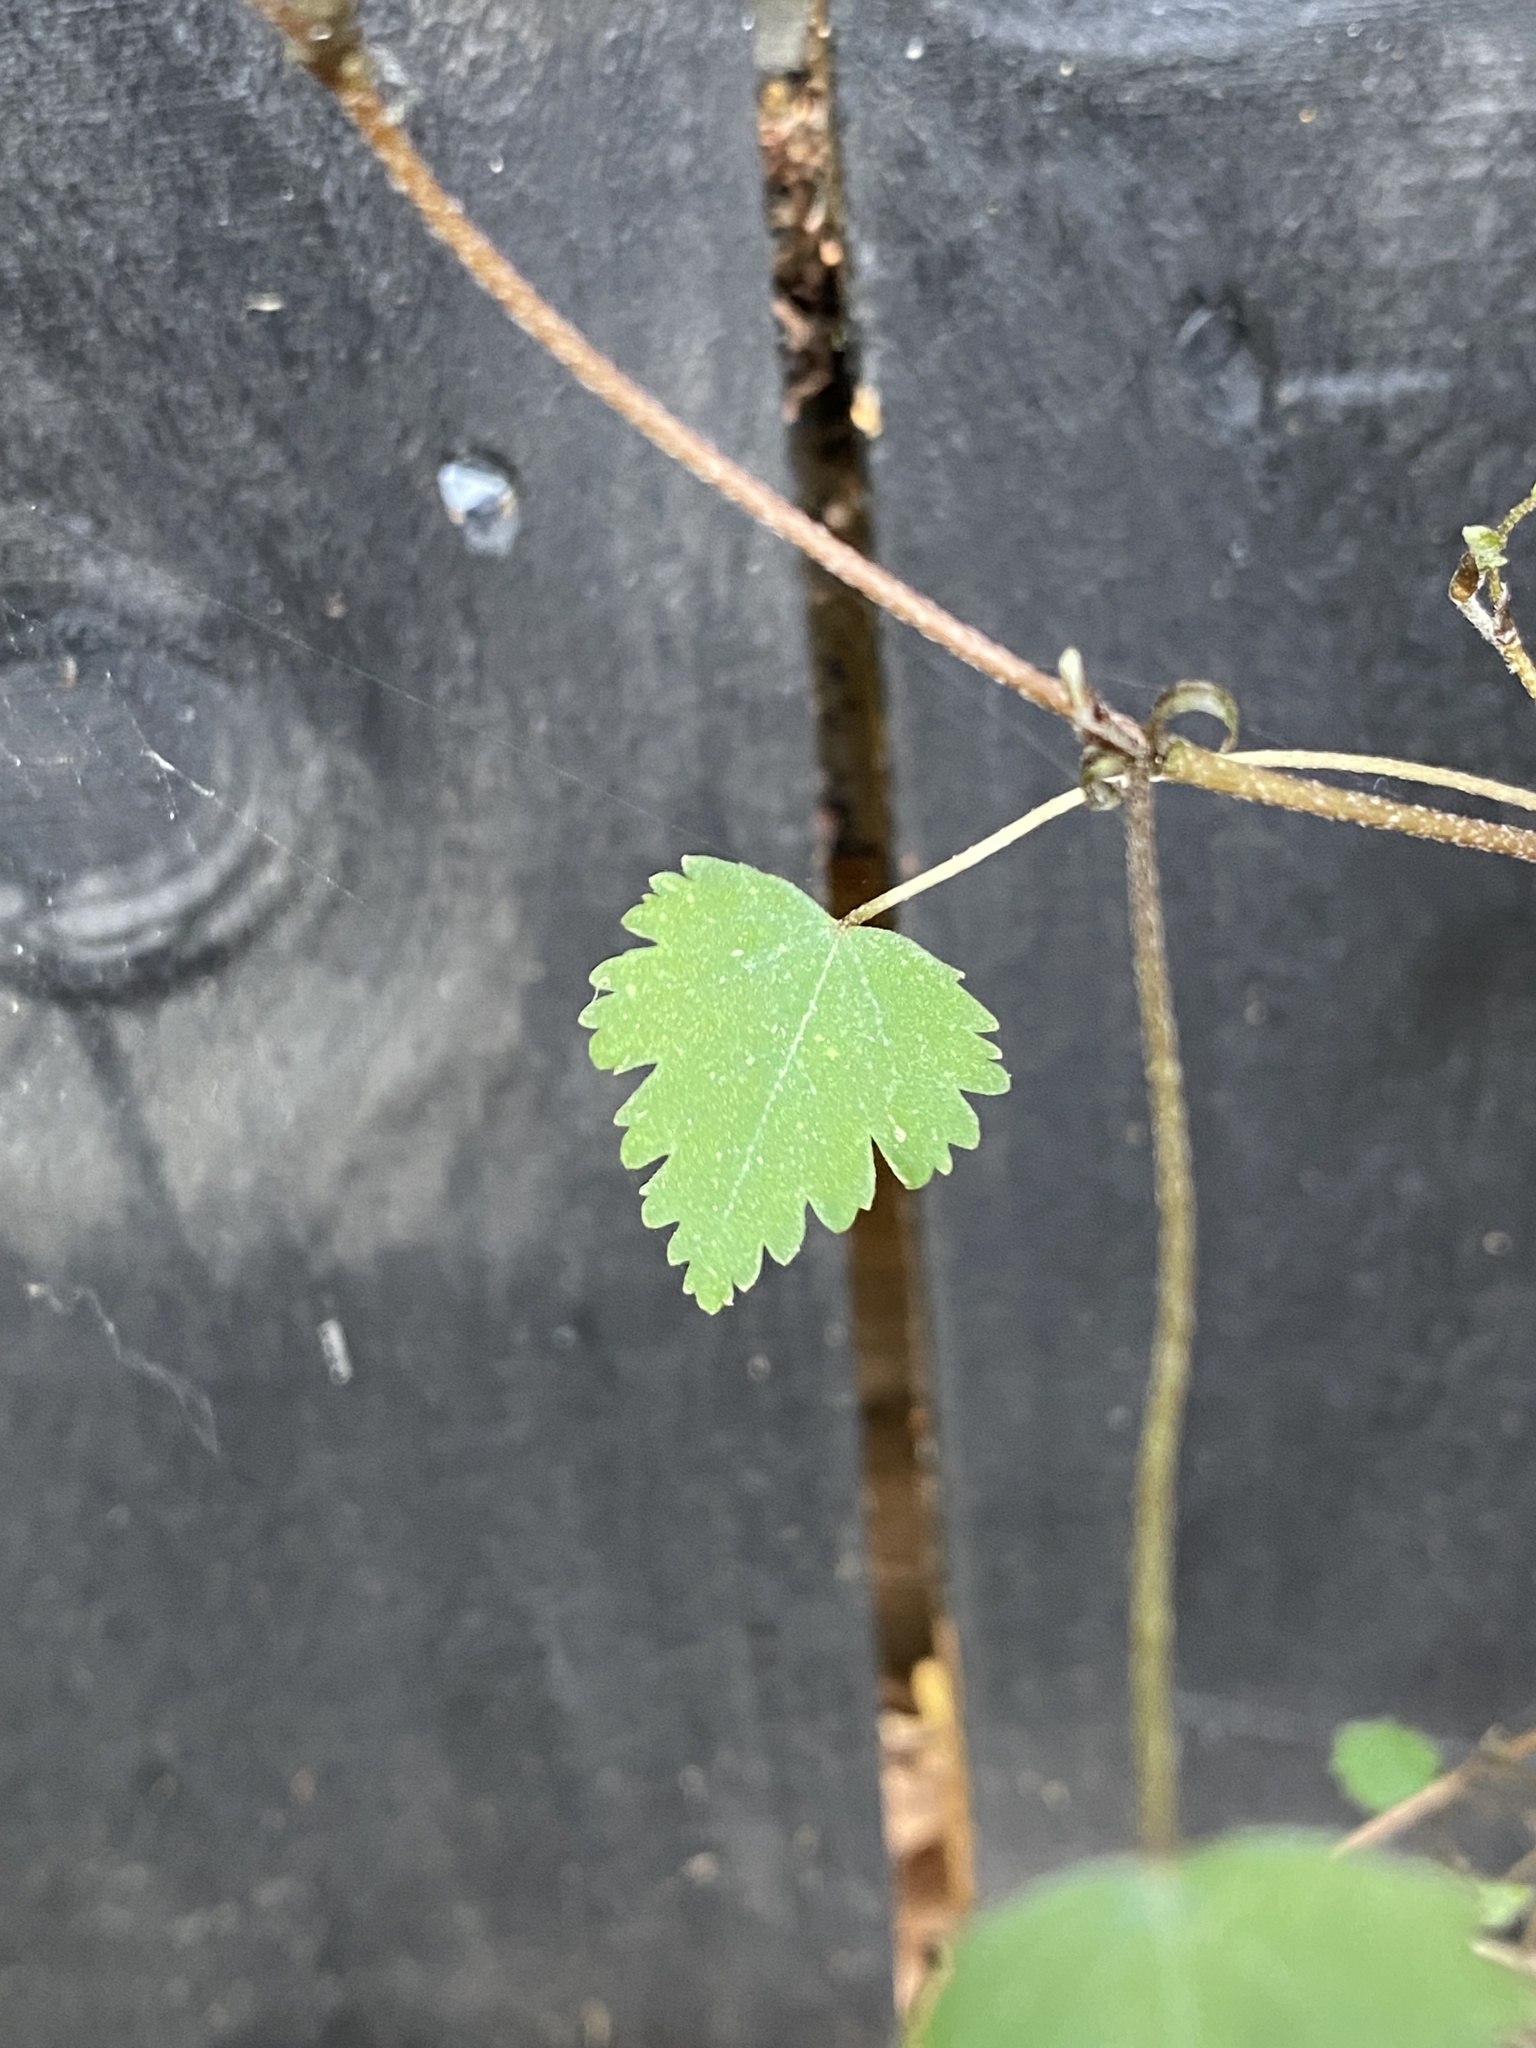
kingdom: Plantae
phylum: Tracheophyta
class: Magnoliopsida
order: Malvales
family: Malvaceae
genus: Plagianthus
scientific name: Plagianthus regius
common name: Manatu
